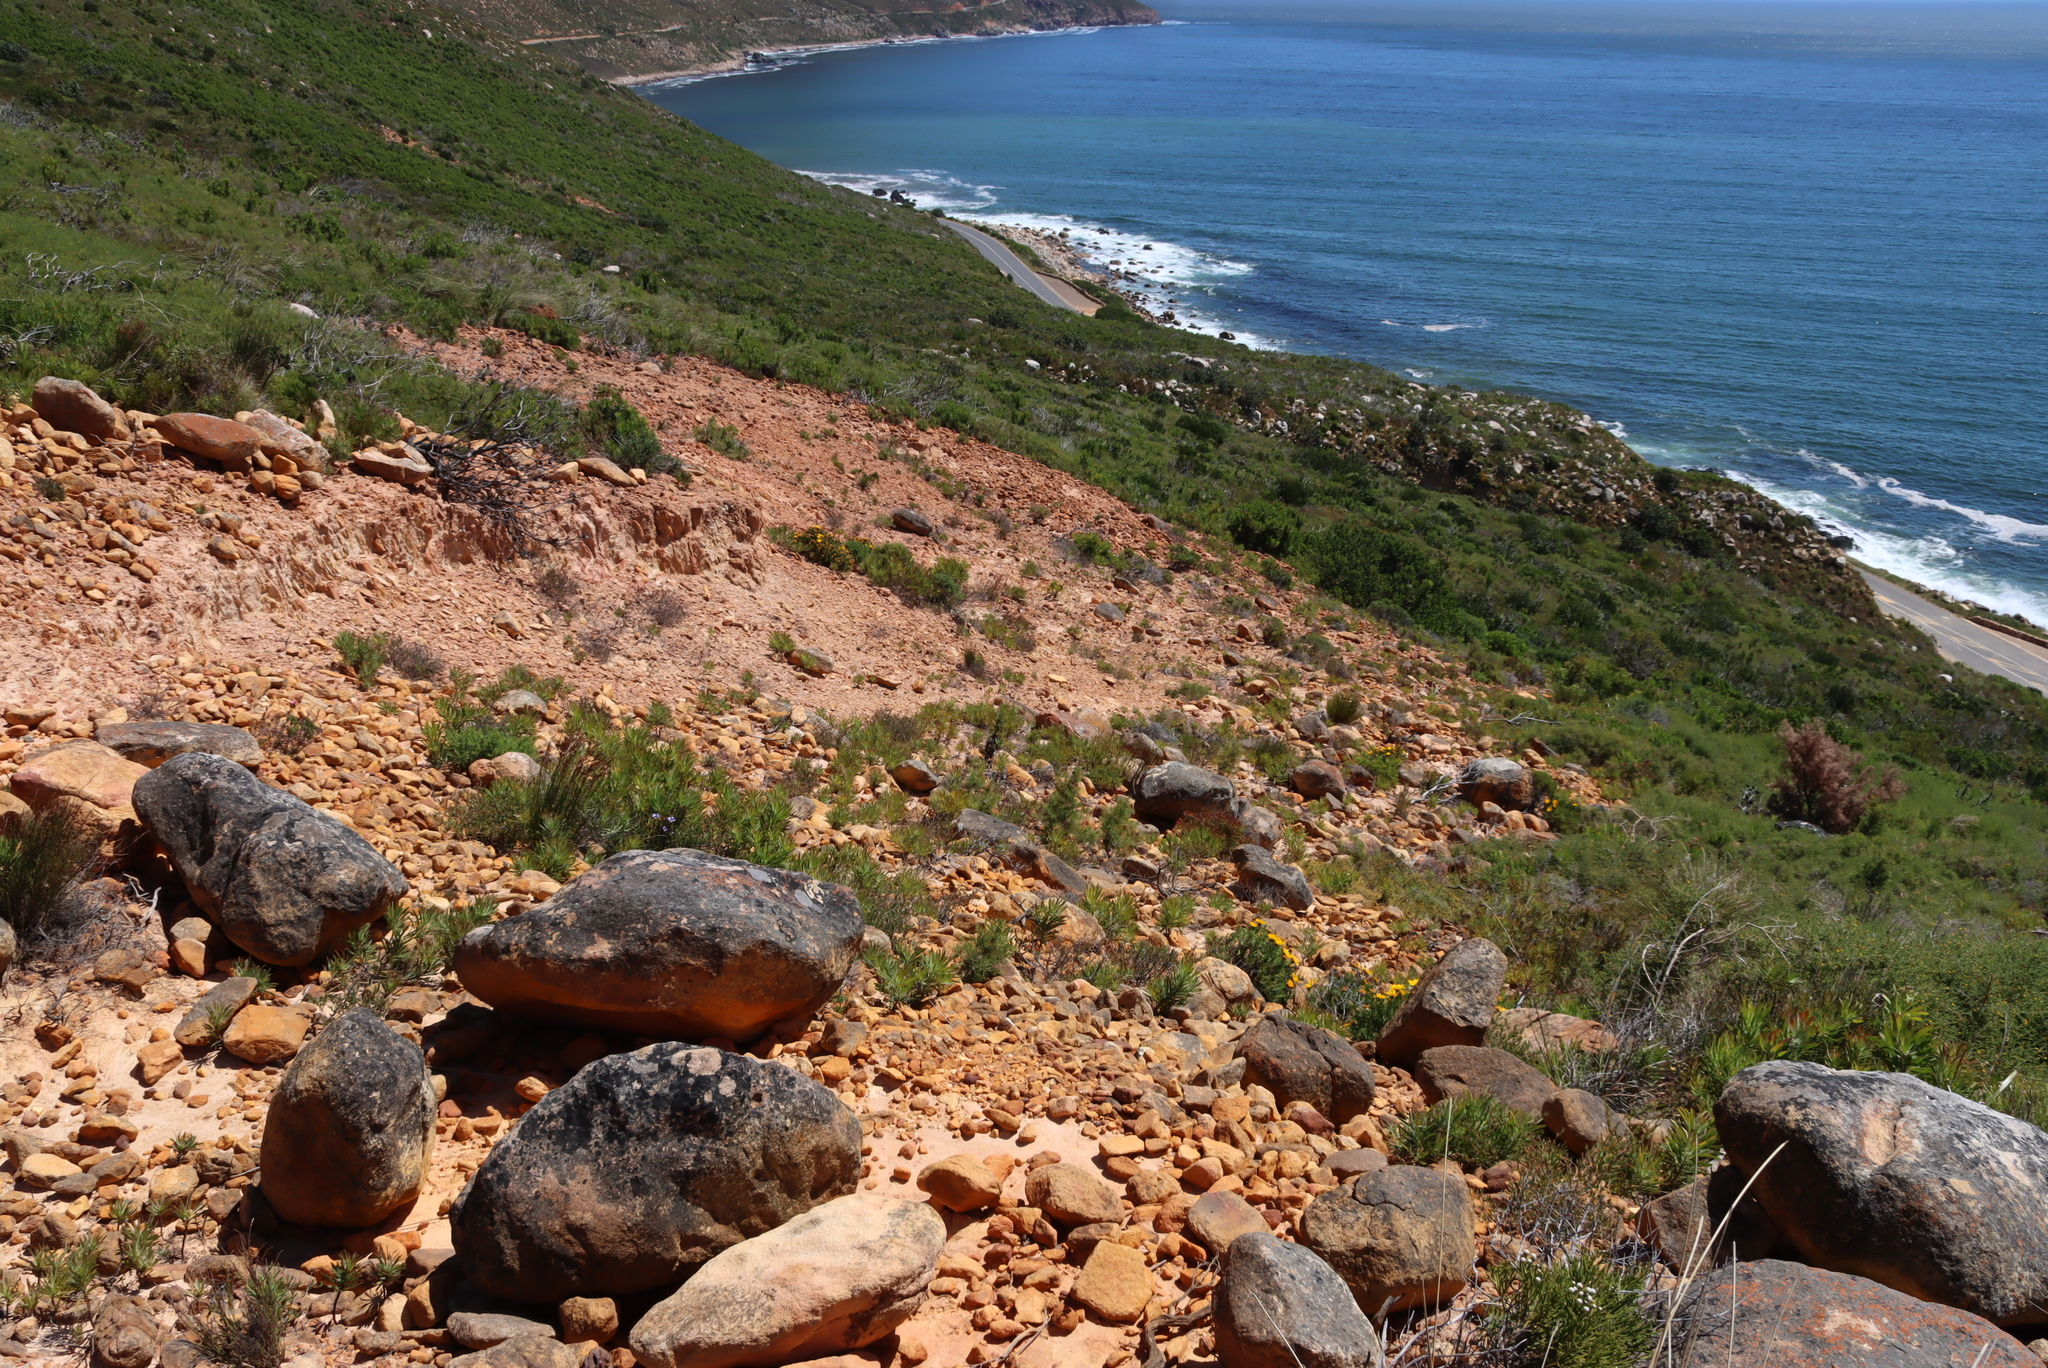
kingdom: Plantae
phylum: Tracheophyta
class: Magnoliopsida
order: Proteales
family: Proteaceae
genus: Protea
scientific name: Protea repens
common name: Sugarbush
